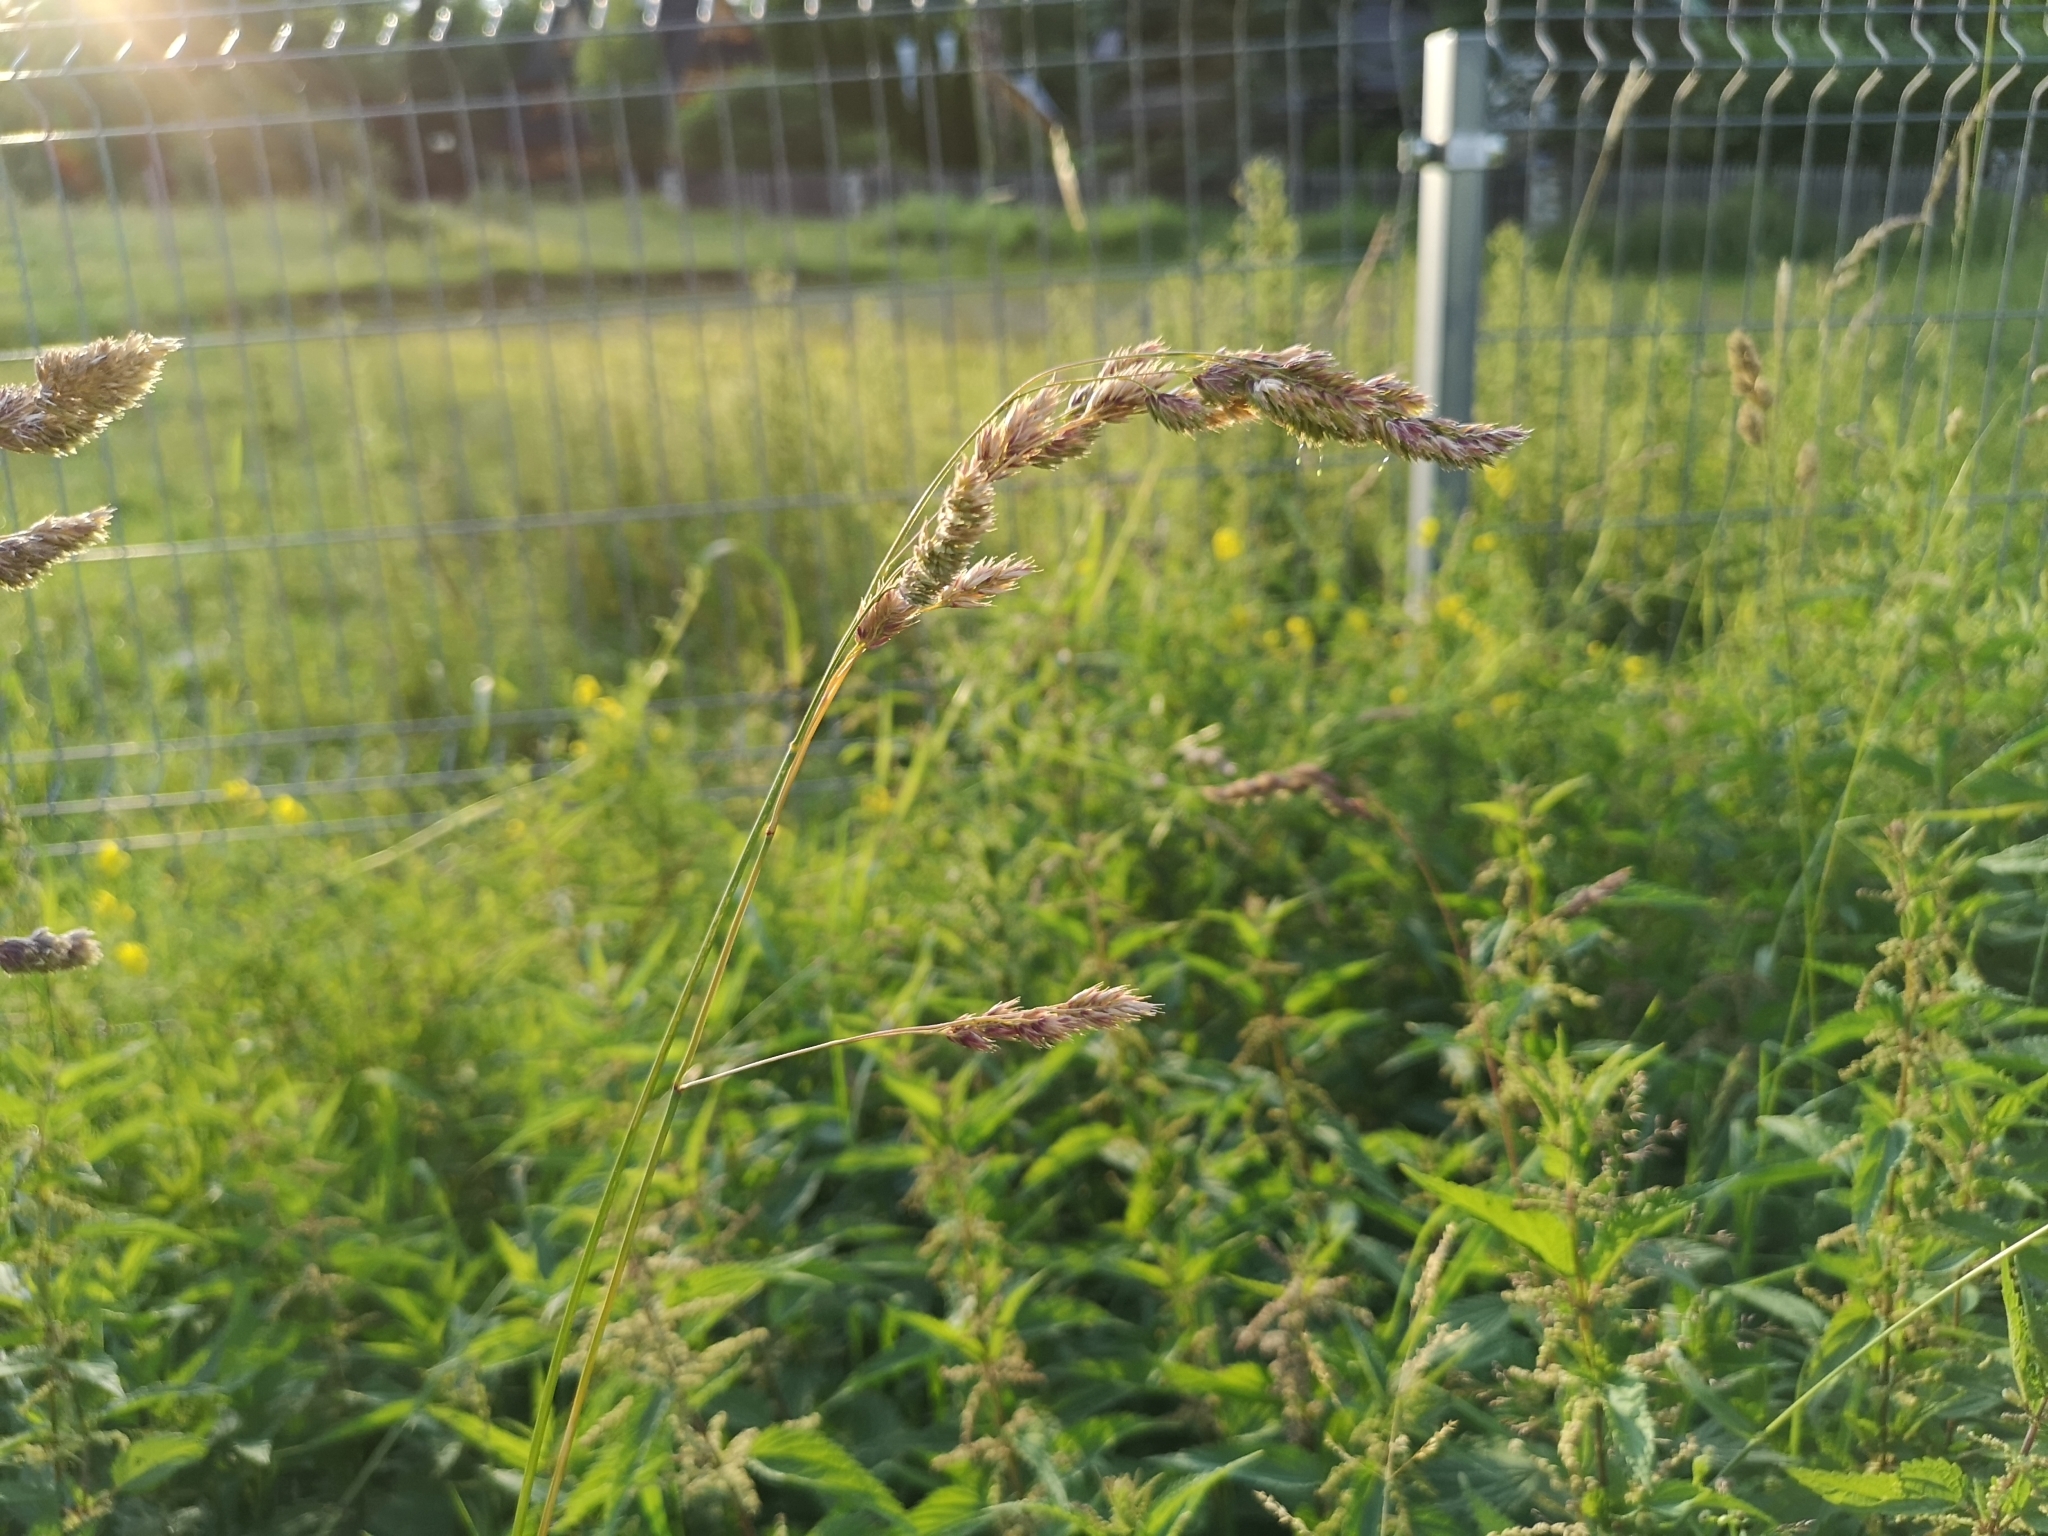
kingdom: Plantae
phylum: Tracheophyta
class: Liliopsida
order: Poales
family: Poaceae
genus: Dactylis
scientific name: Dactylis glomerata
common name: Orchardgrass
